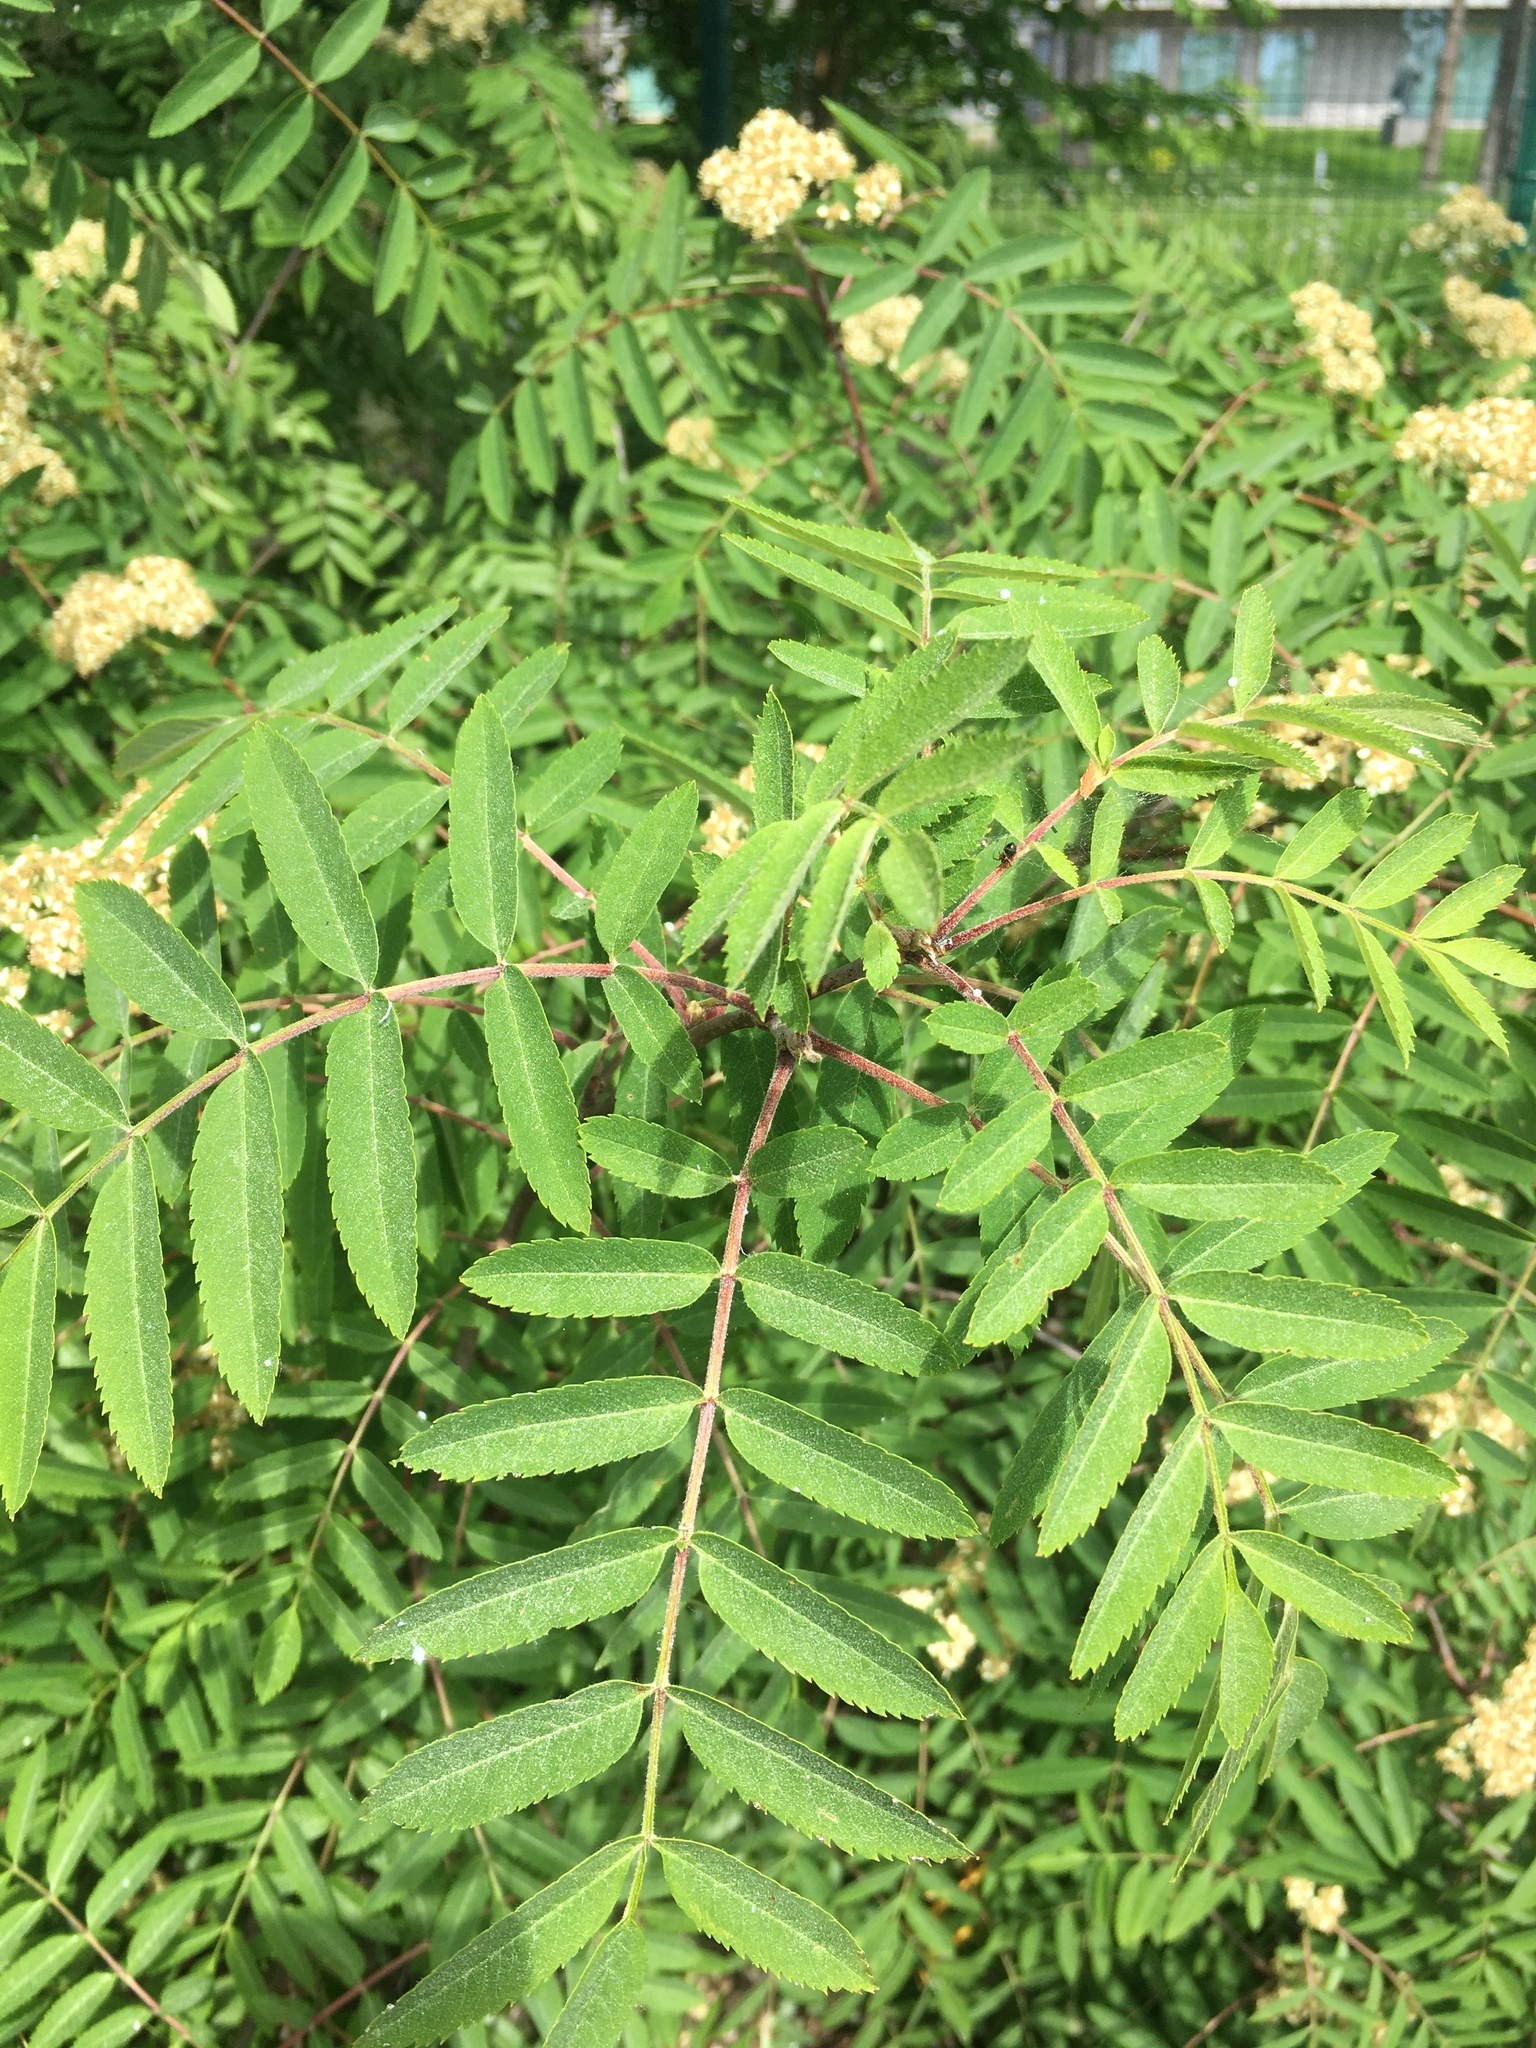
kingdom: Plantae
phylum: Tracheophyta
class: Magnoliopsida
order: Rosales
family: Rosaceae
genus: Sorbus
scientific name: Sorbus aucuparia
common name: Rowan
